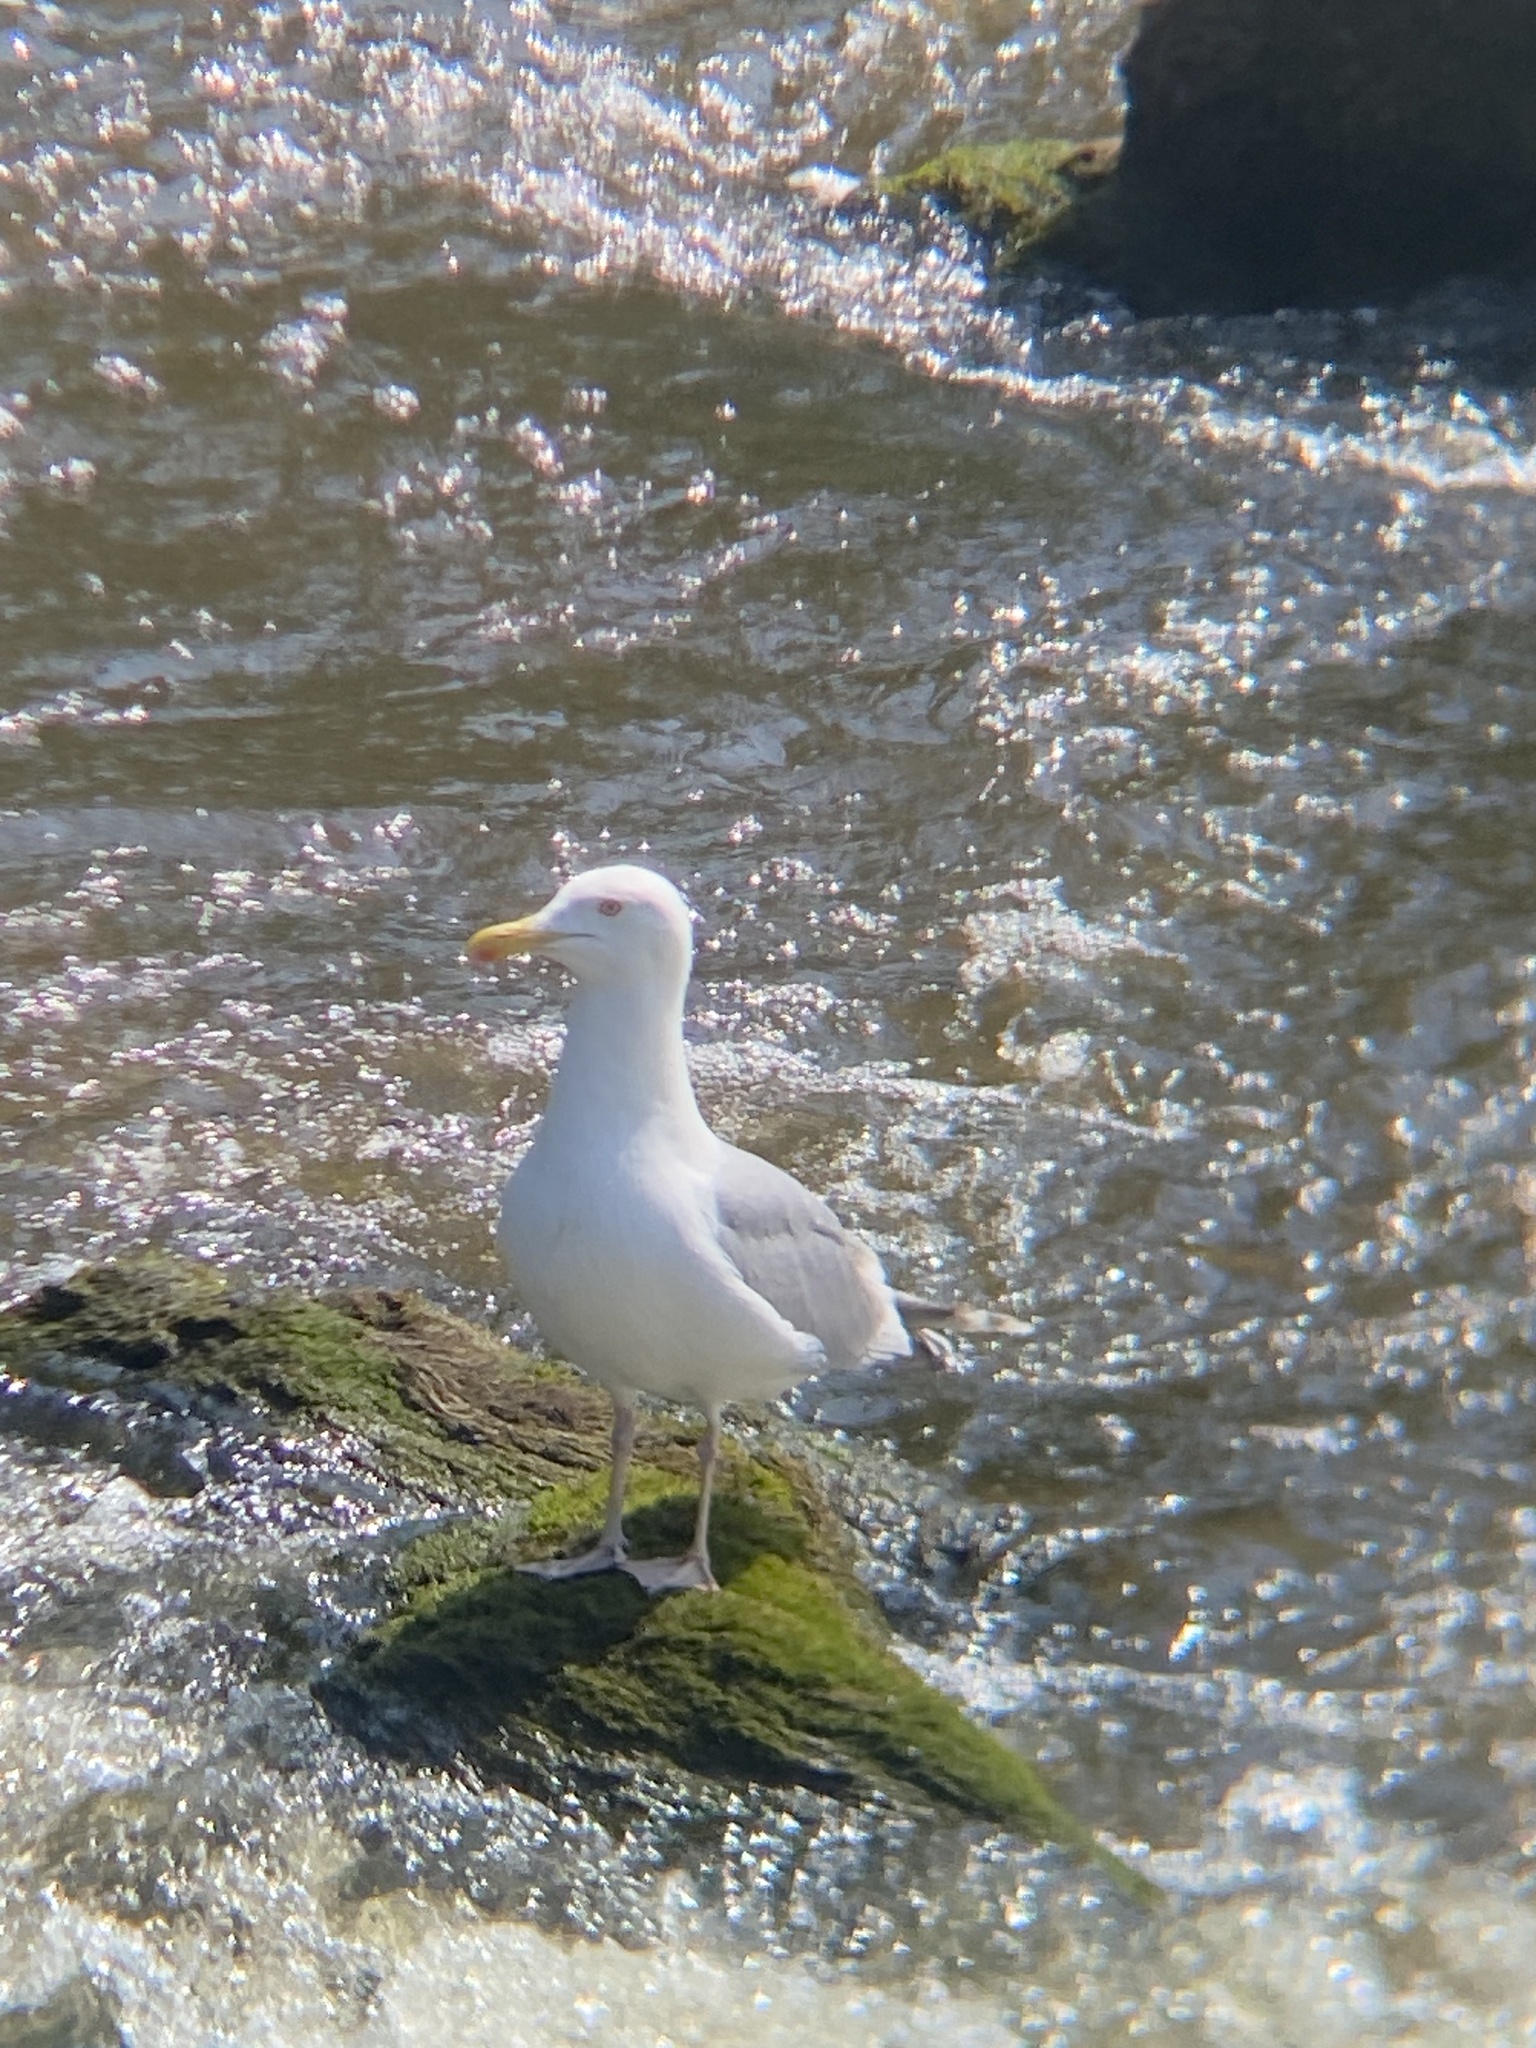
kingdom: Animalia
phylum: Chordata
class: Aves
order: Charadriiformes
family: Laridae
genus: Larus
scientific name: Larus argentatus
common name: Herring gull
